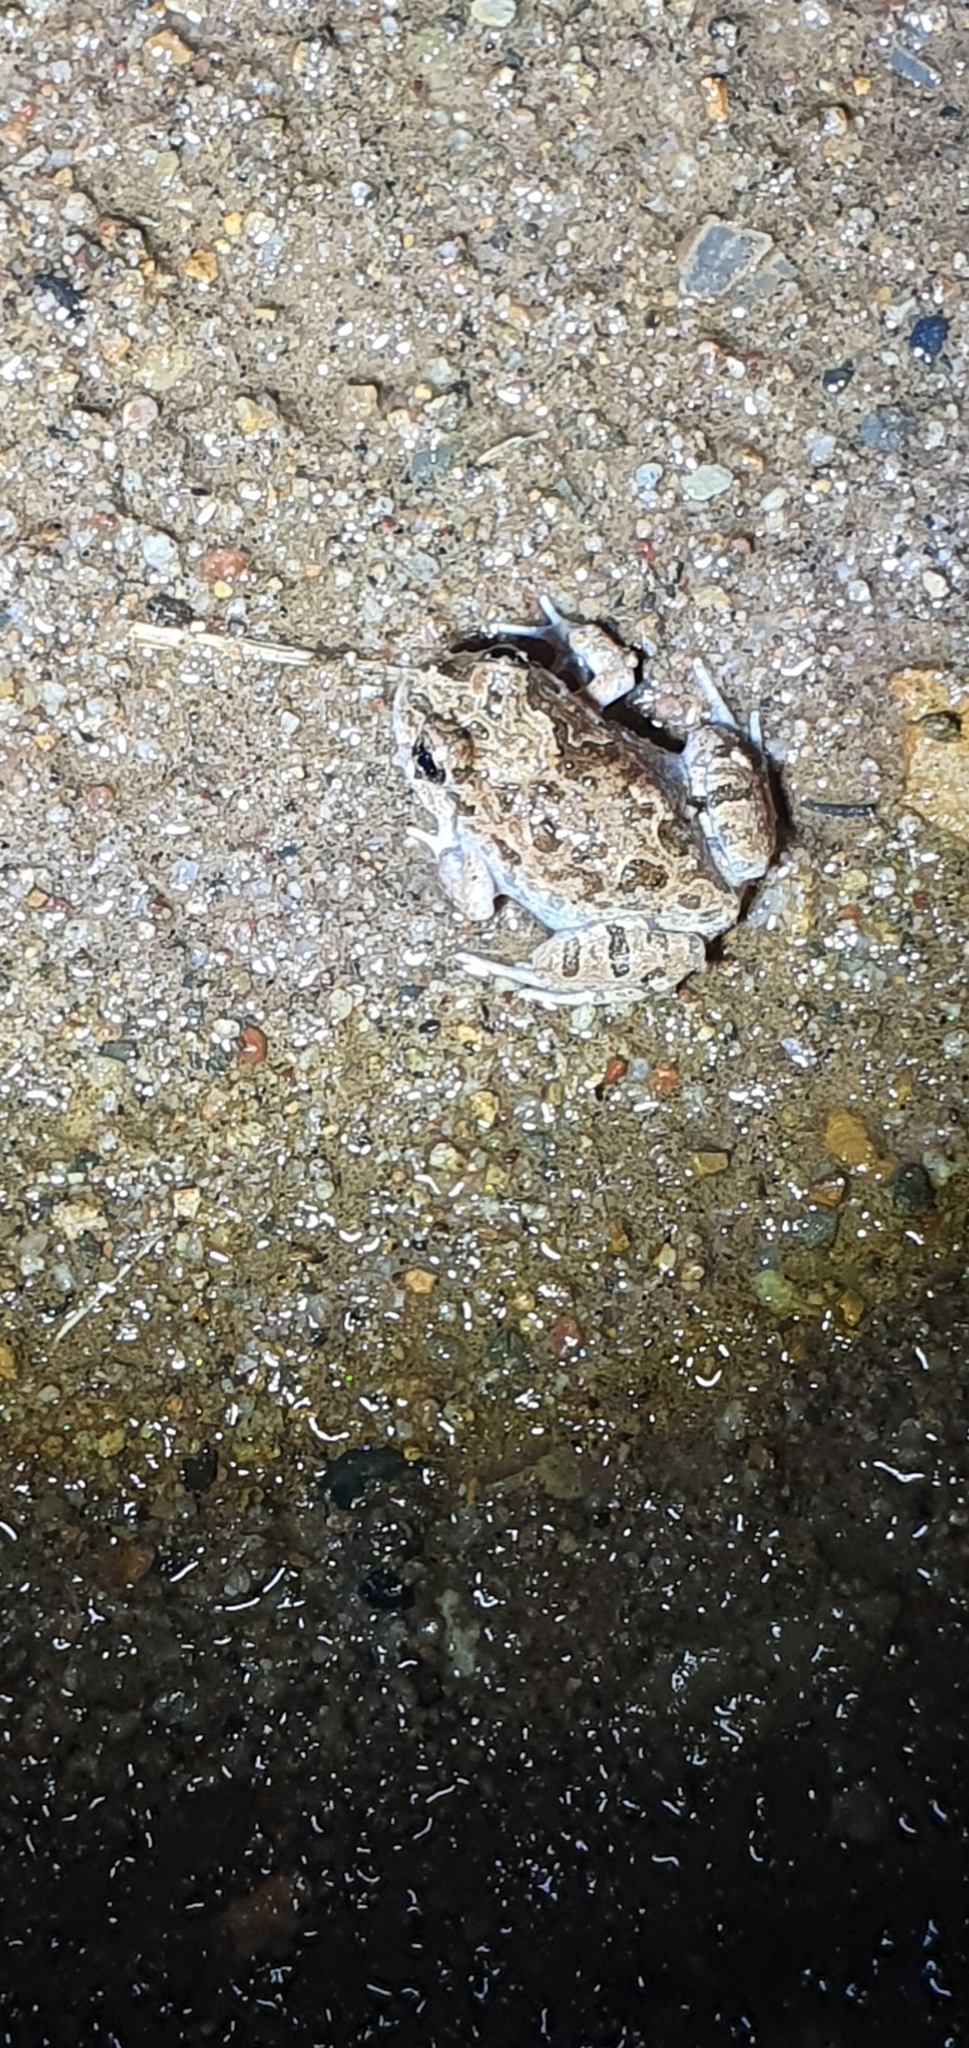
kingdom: Animalia
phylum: Chordata
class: Amphibia
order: Anura
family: Limnodynastidae
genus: Platyplectrum
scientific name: Platyplectrum ornatum
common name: Ornate burrowing frog
